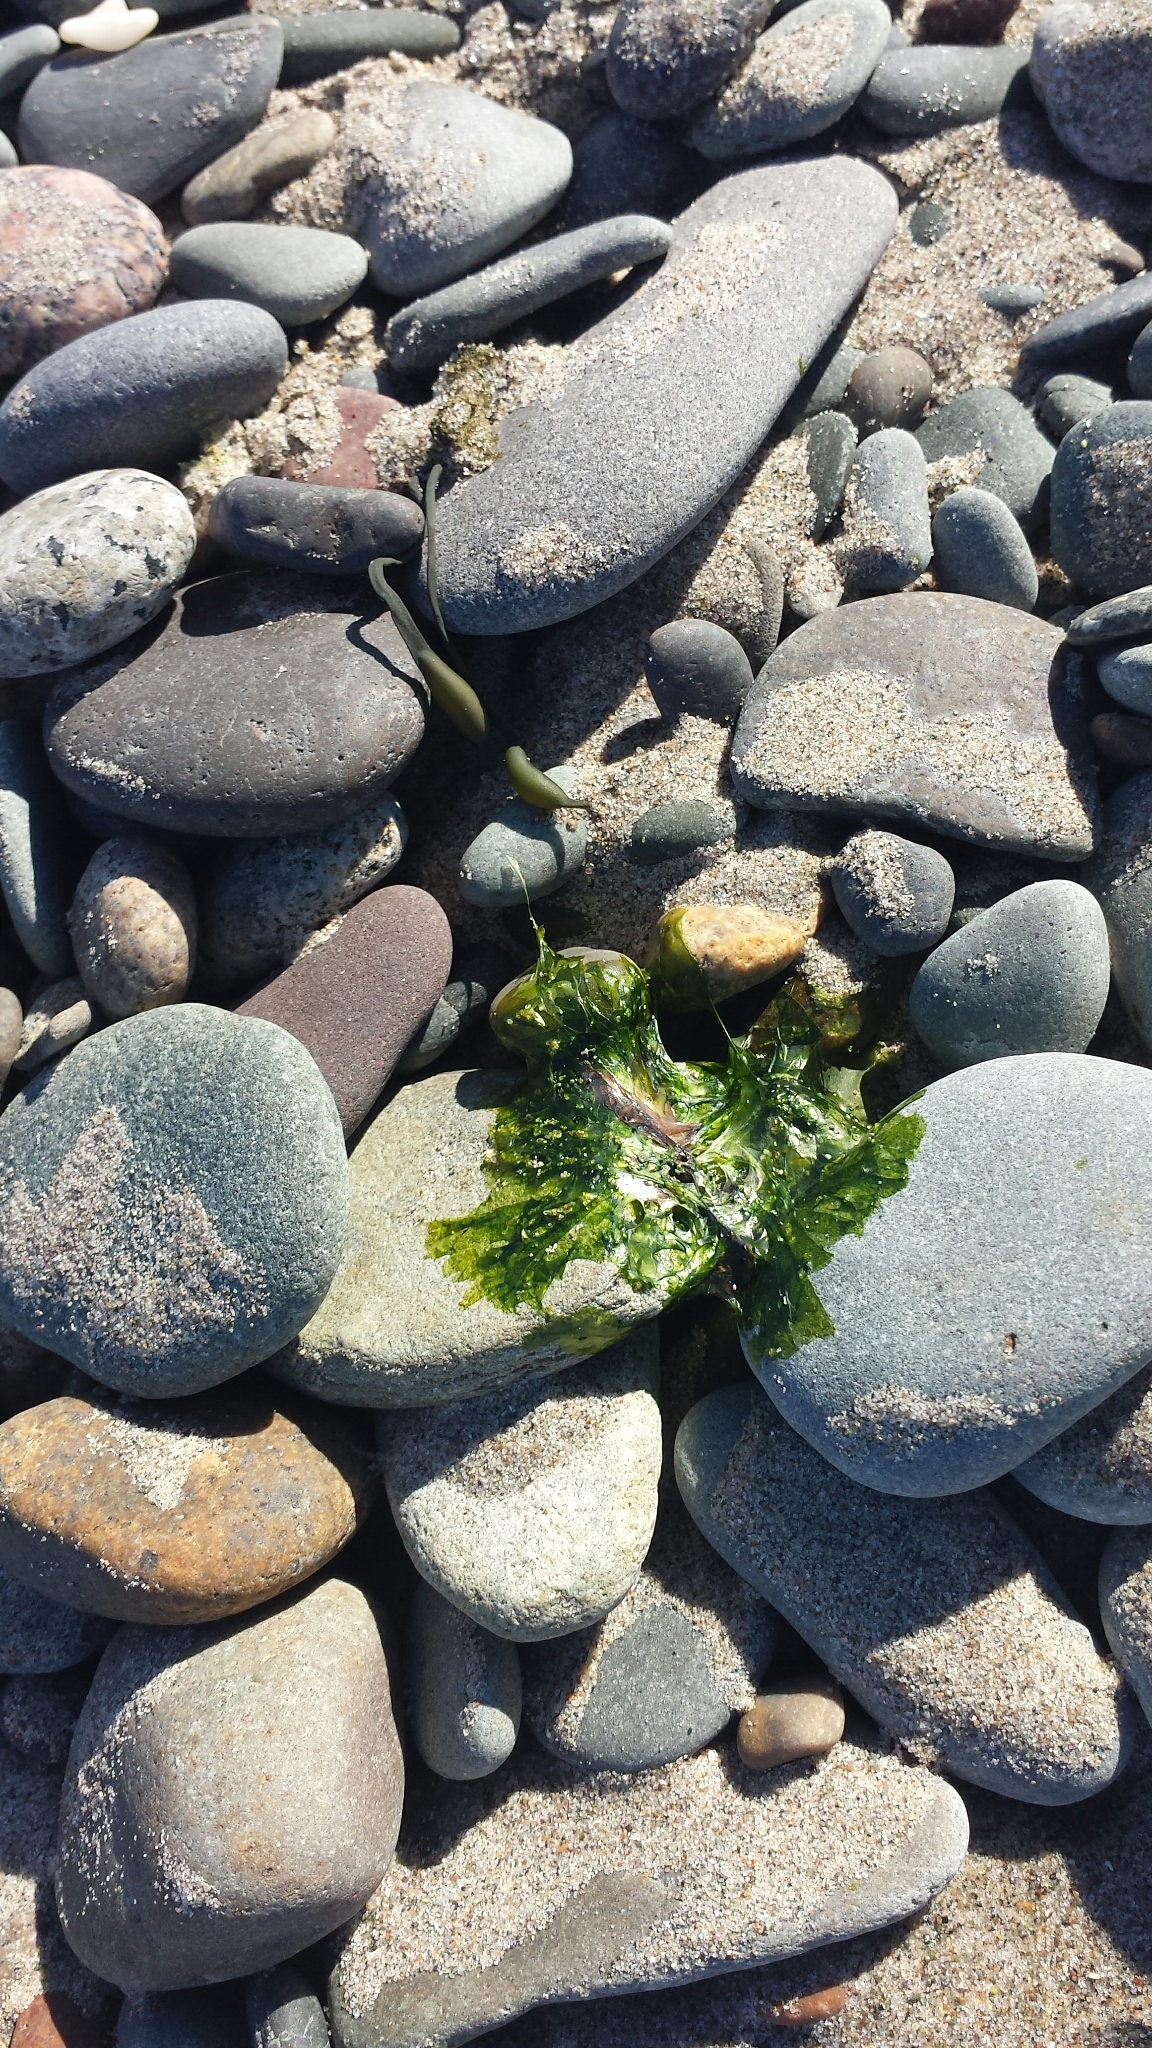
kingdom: Plantae
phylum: Chlorophyta
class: Ulvophyceae
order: Ulvales
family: Ulvaceae
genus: Ulva
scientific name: Ulva
